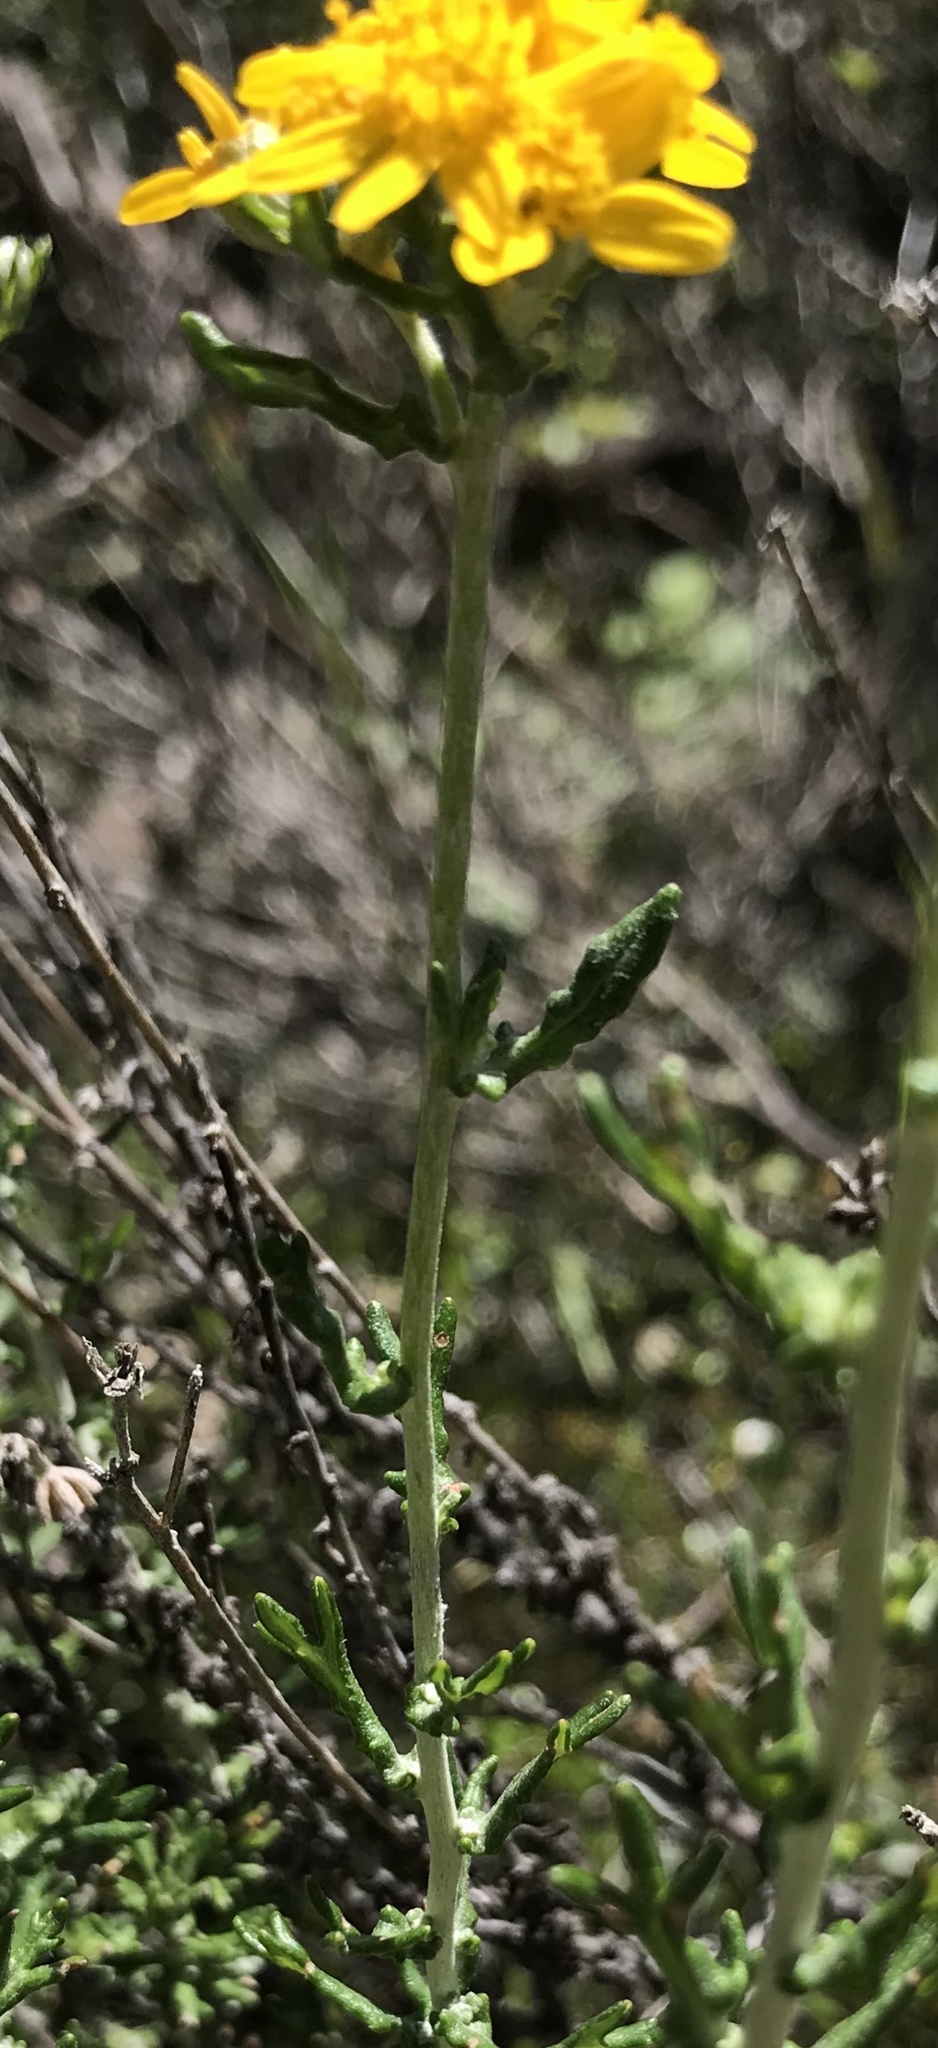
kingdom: Plantae
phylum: Tracheophyta
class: Magnoliopsida
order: Asterales
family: Asteraceae
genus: Eriophyllum
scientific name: Eriophyllum confertiflorum
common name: Golden-yarrow
